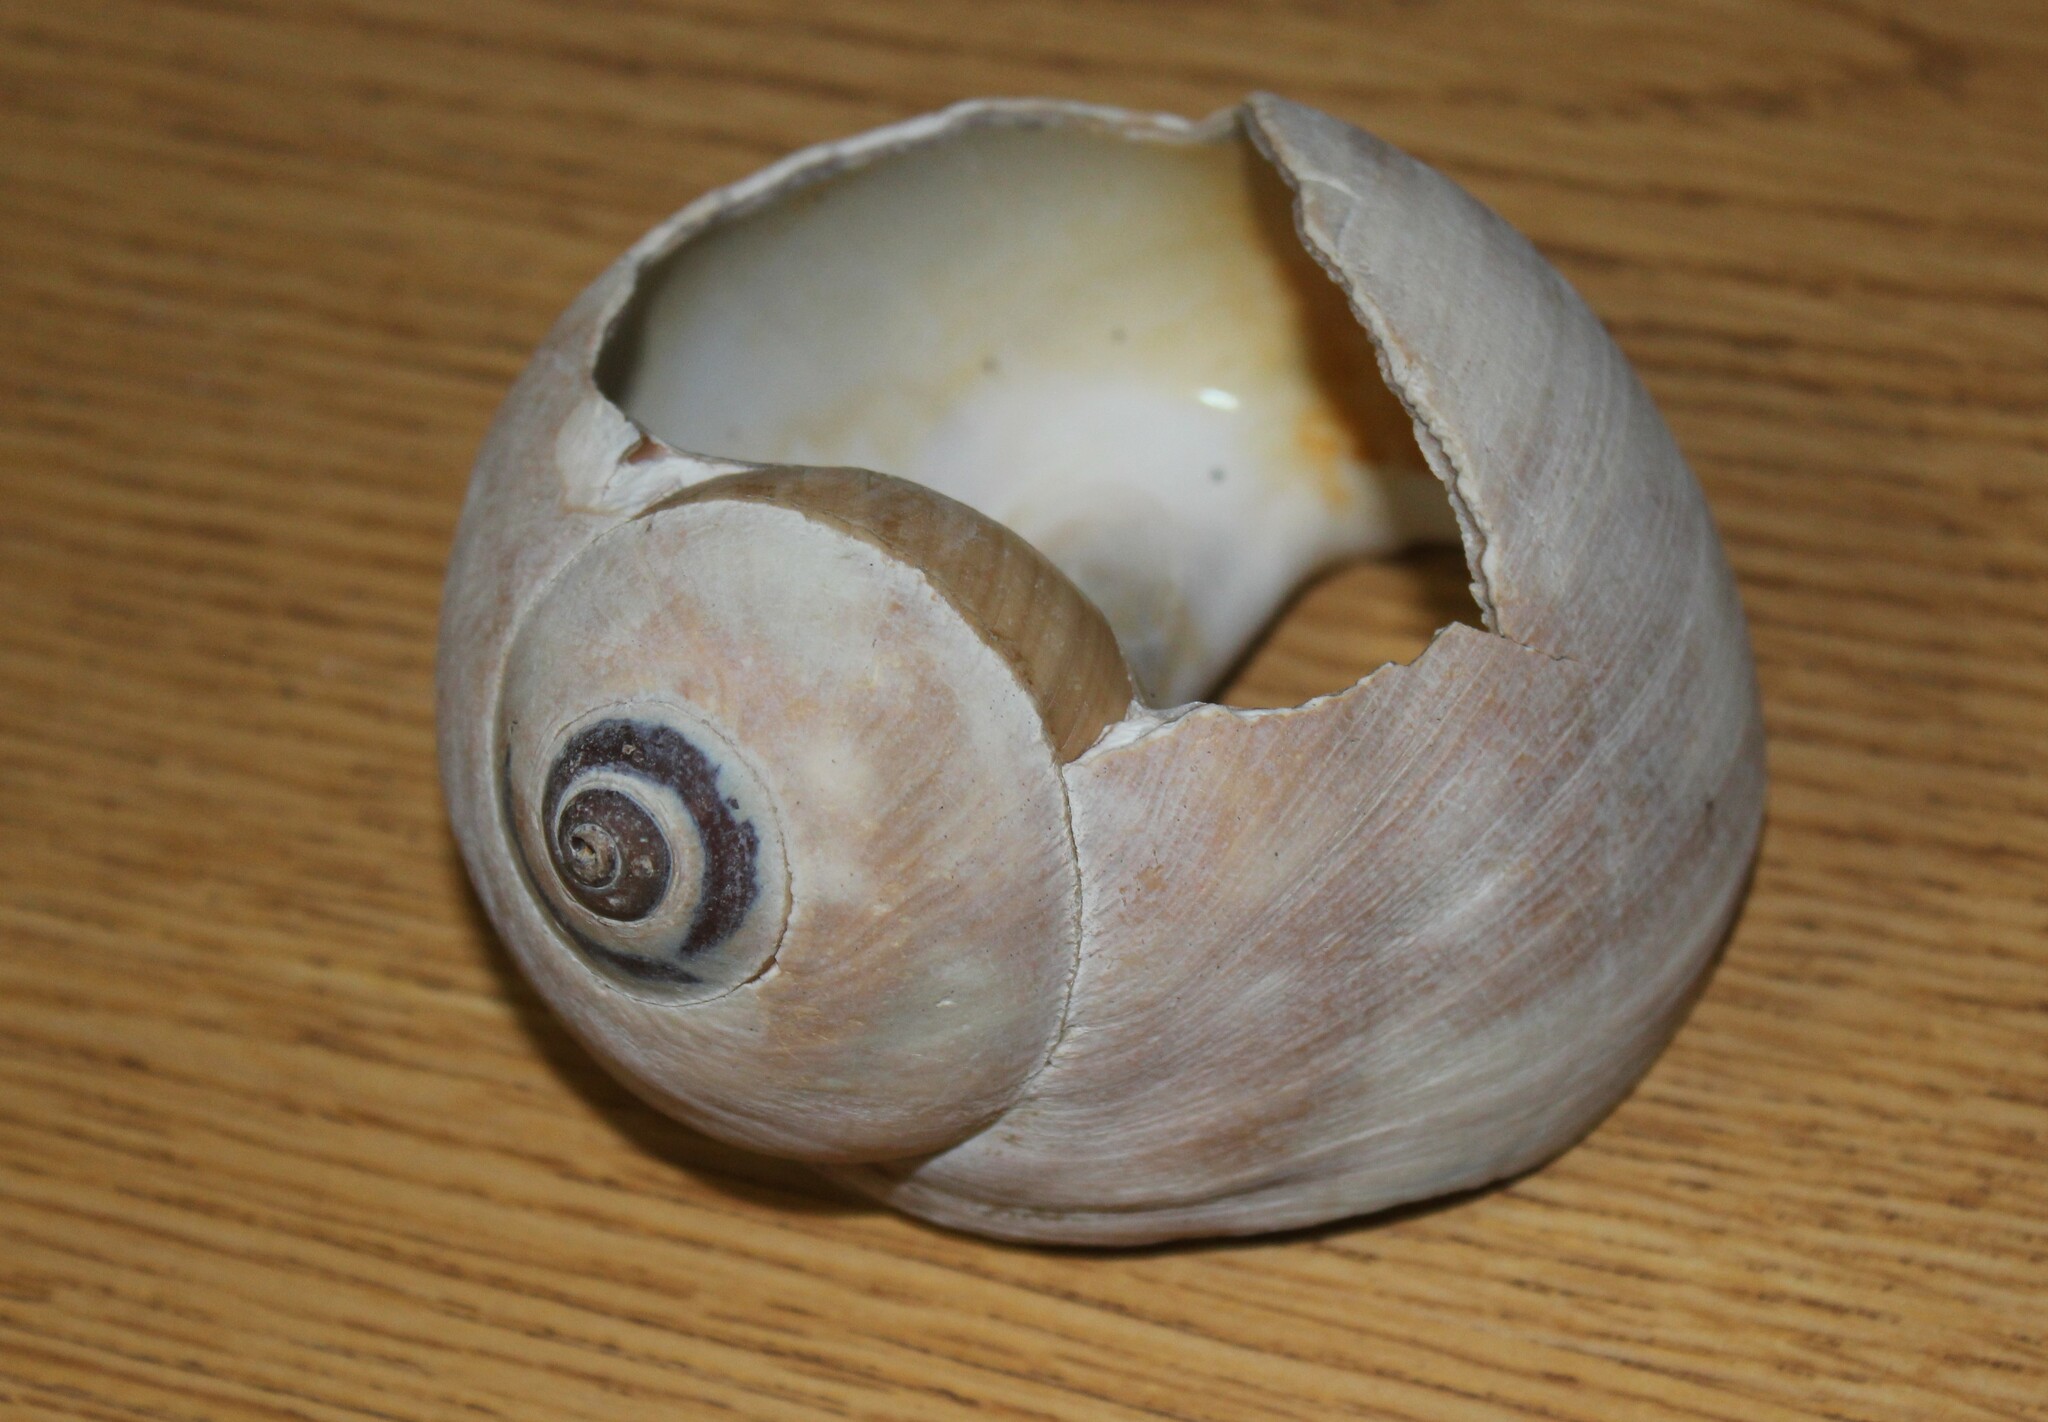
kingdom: Animalia
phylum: Mollusca
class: Gastropoda
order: Littorinimorpha
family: Naticidae
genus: Neverita
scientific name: Neverita lewisii
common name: Lewis' moonsnail
